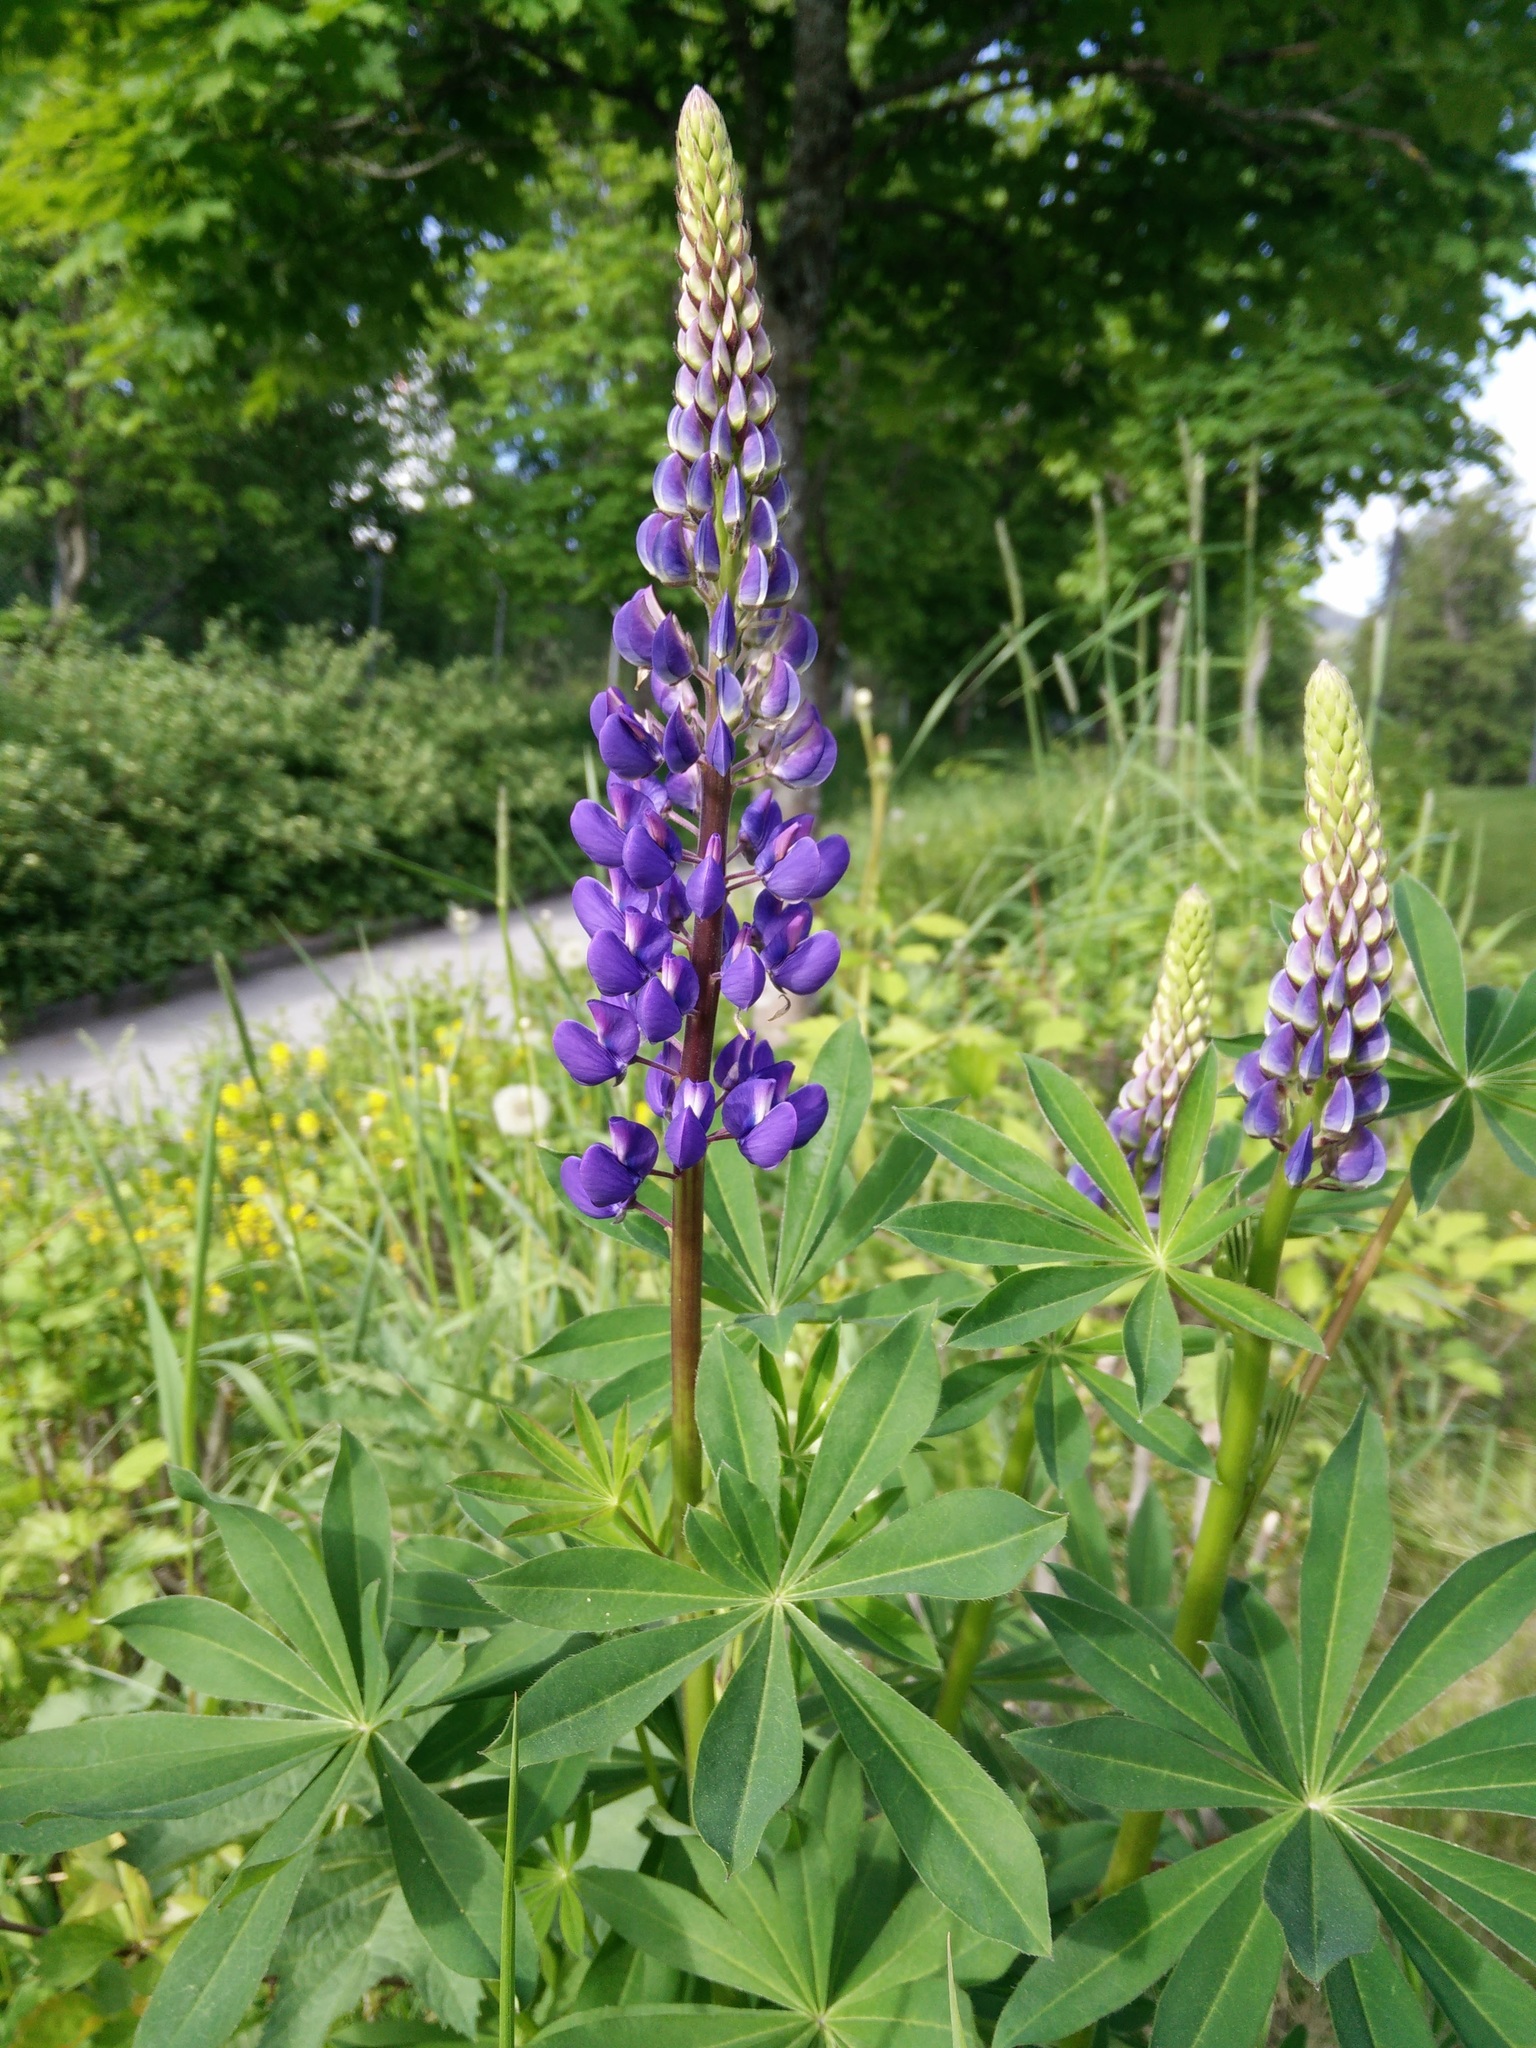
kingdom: Plantae
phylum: Tracheophyta
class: Magnoliopsida
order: Fabales
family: Fabaceae
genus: Lupinus
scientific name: Lupinus polyphyllus
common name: Garden lupin
